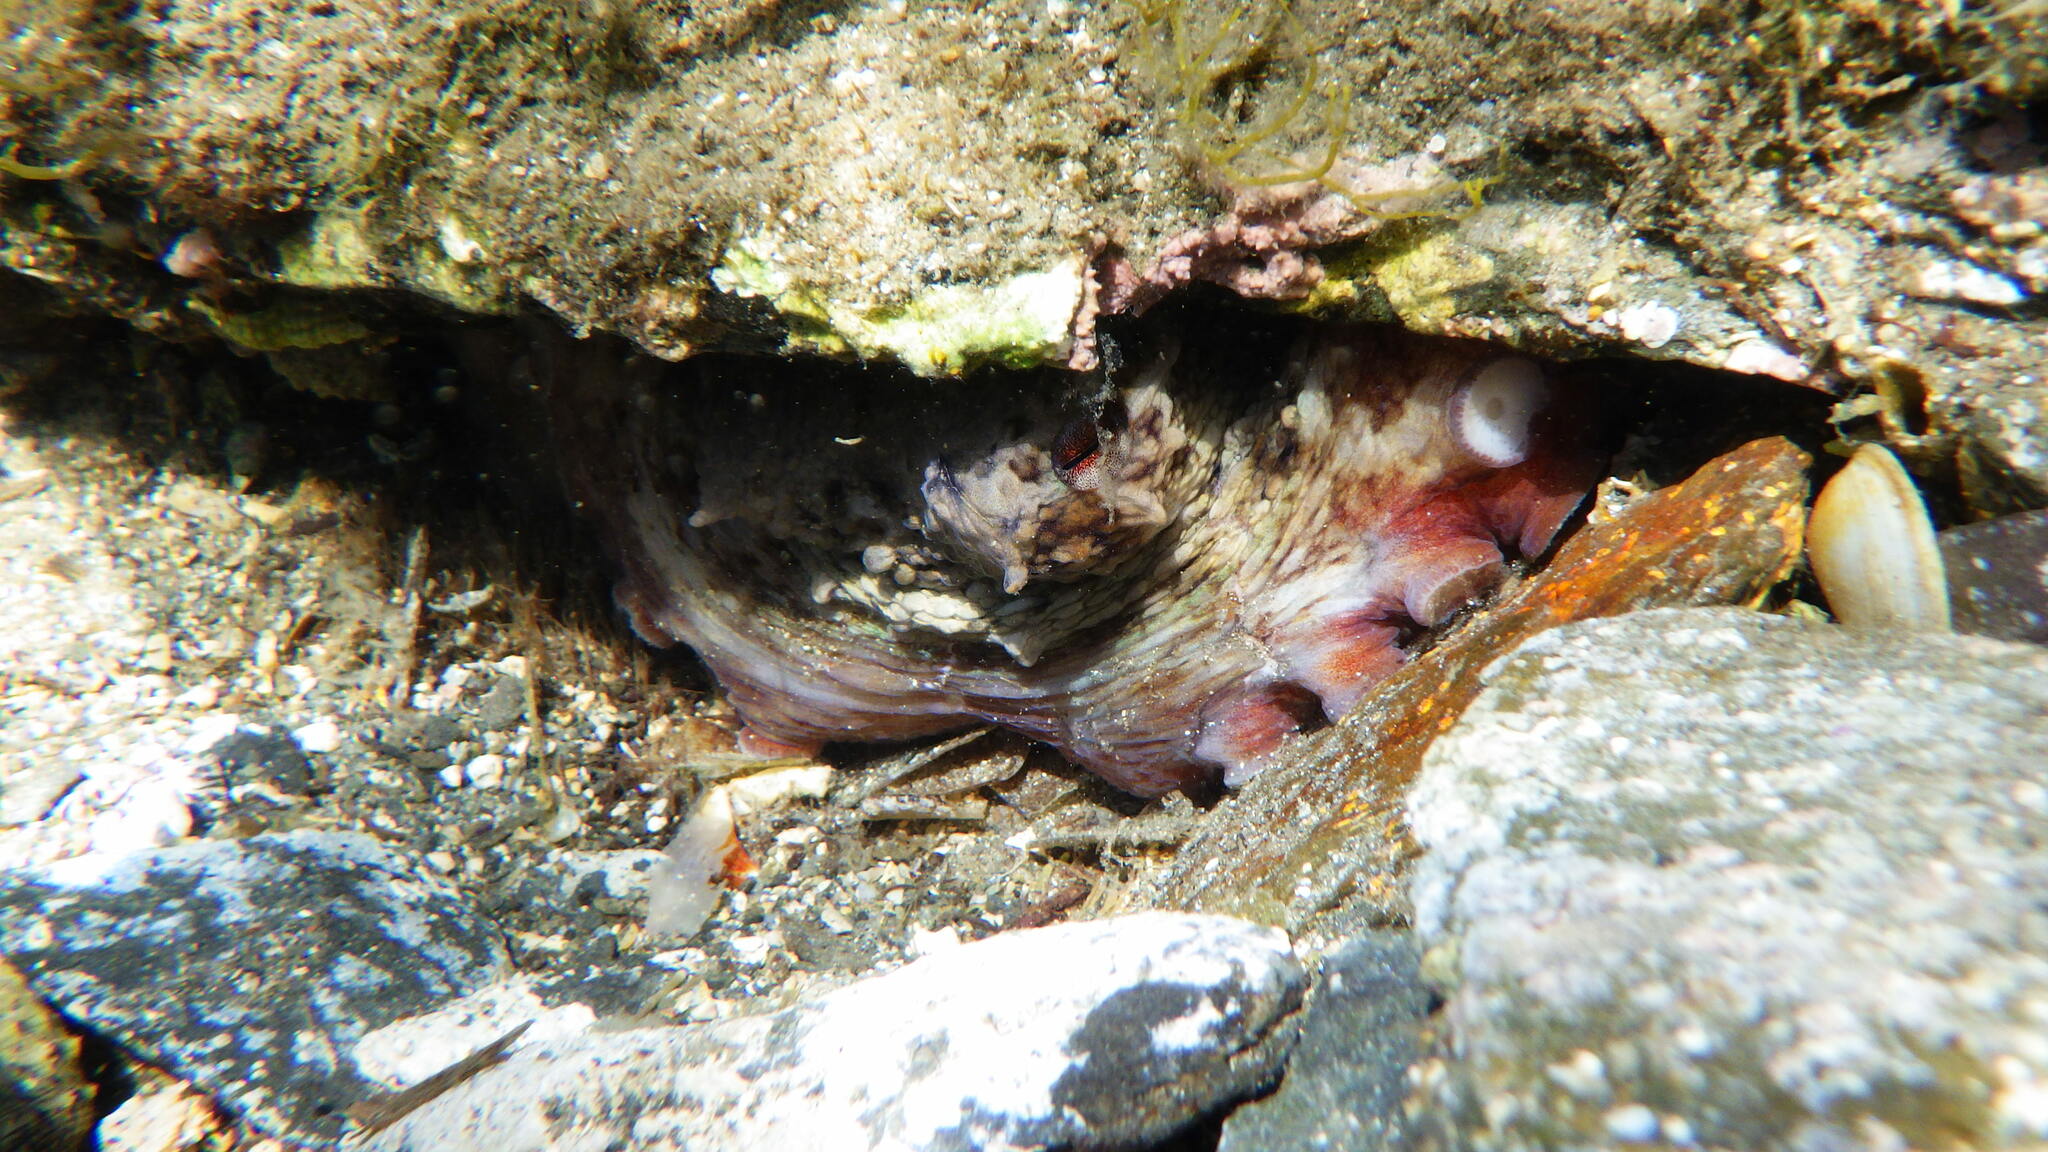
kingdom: Animalia
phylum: Mollusca
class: Cephalopoda
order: Octopoda
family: Octopodidae
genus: Octopus
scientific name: Octopus vulgaris
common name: Common octopus
